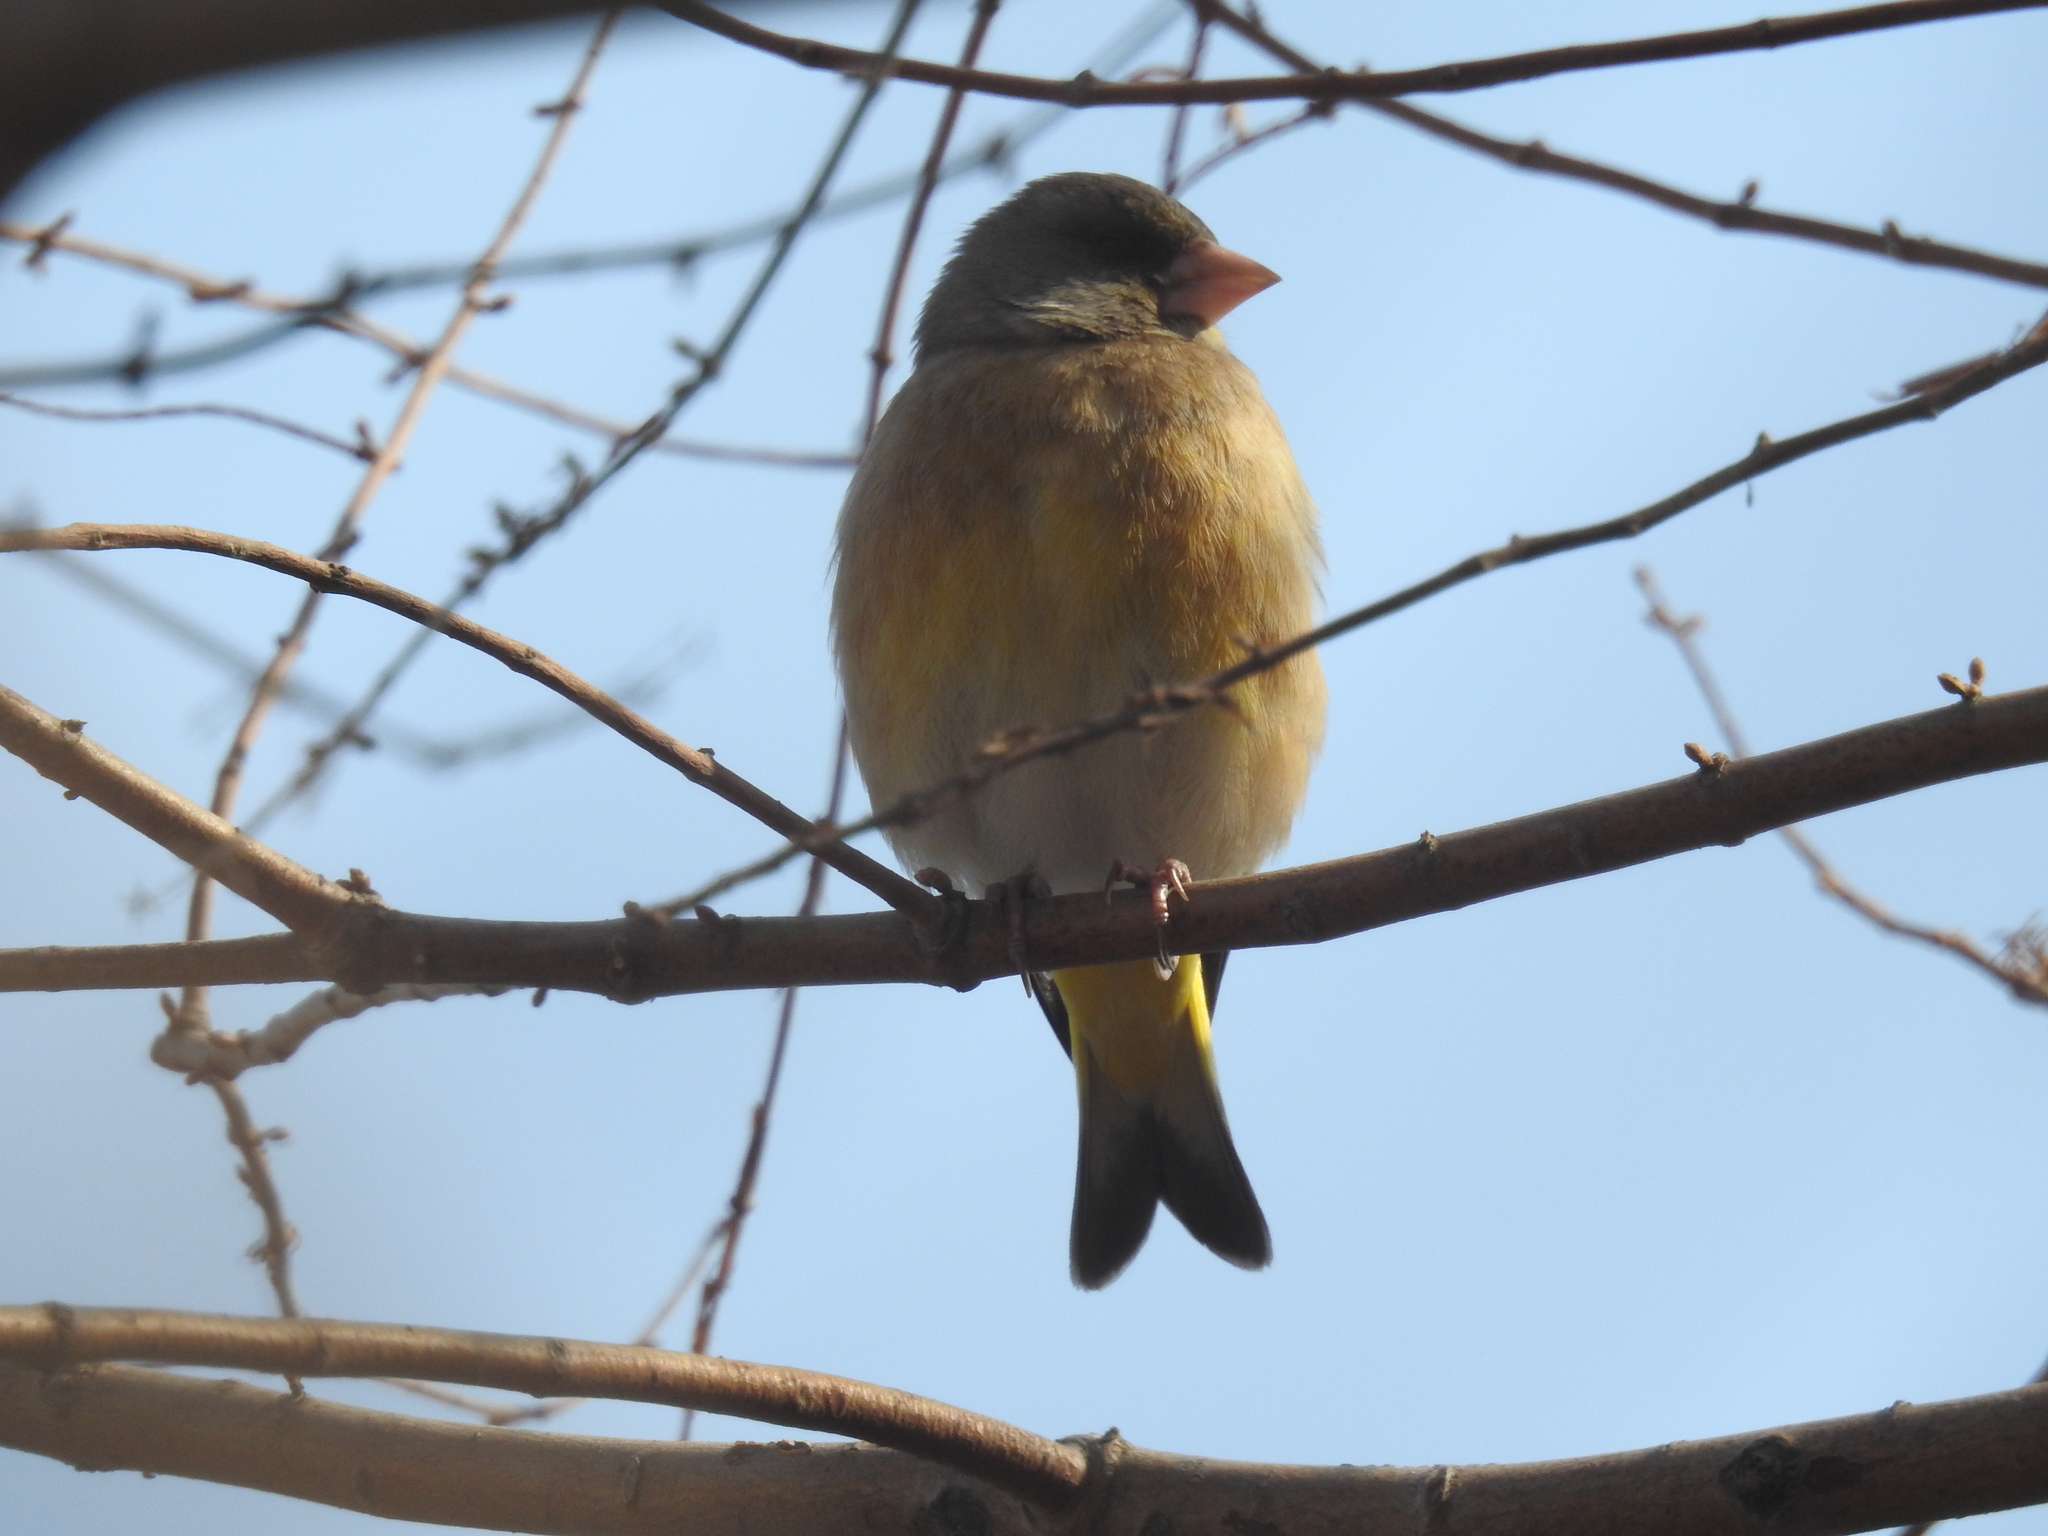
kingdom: Plantae
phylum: Tracheophyta
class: Liliopsida
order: Poales
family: Poaceae
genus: Chloris
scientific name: Chloris sinica
